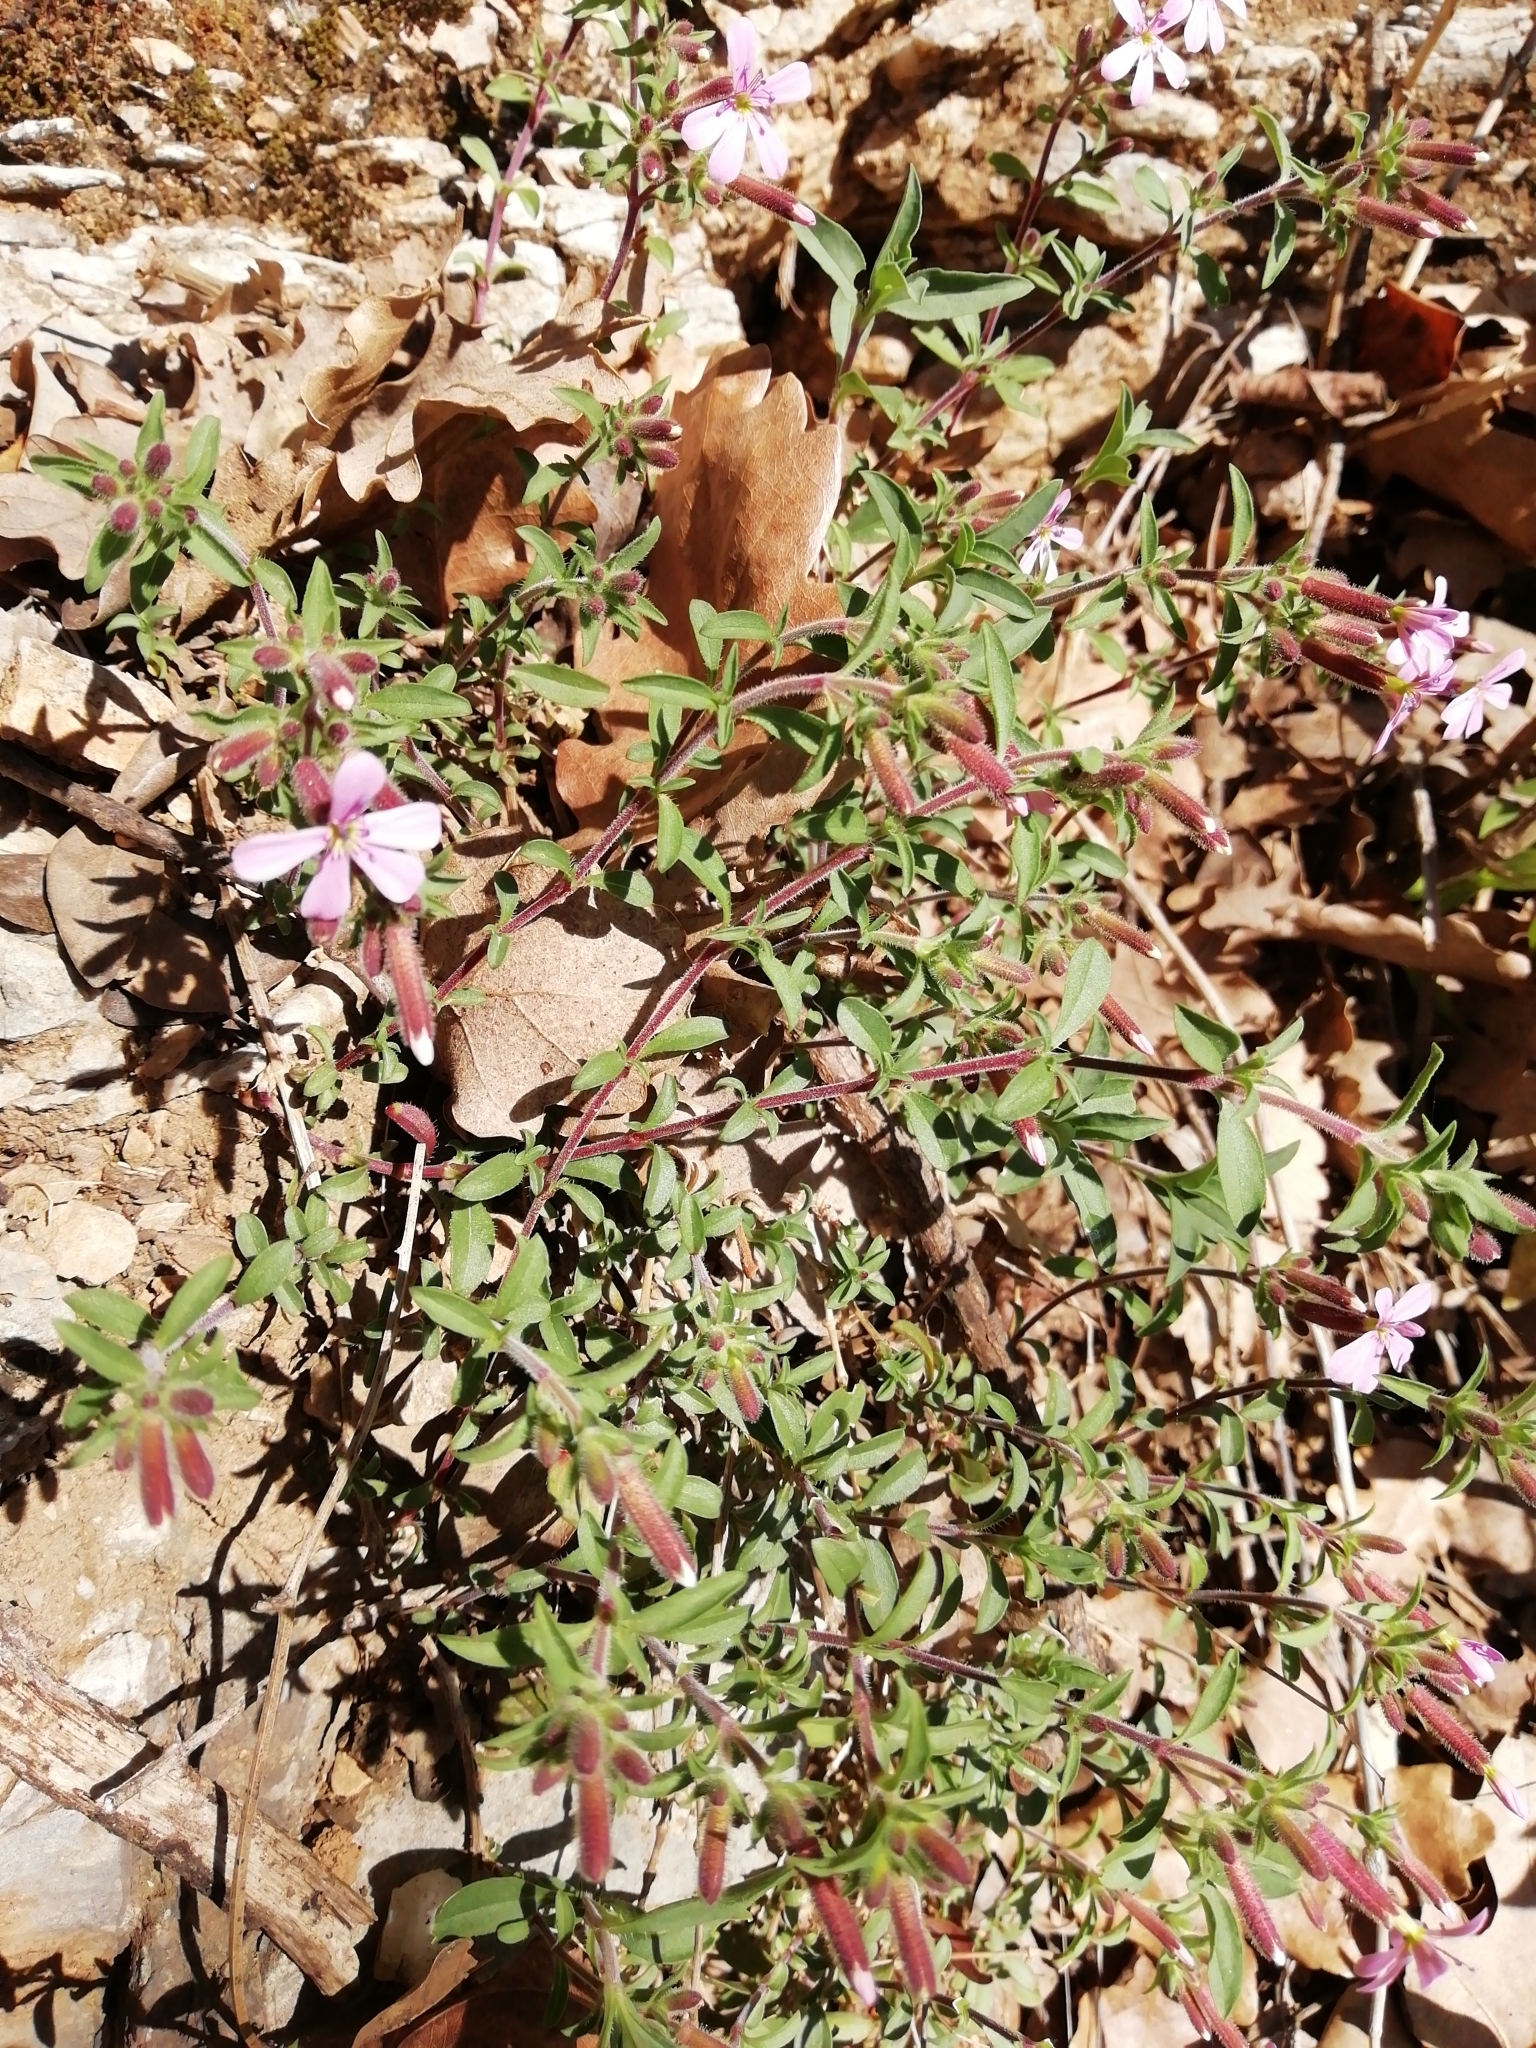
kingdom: Plantae
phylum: Tracheophyta
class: Magnoliopsida
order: Caryophyllales
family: Caryophyllaceae
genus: Saponaria
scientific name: Saponaria ocymoides
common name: Rock soapwort
